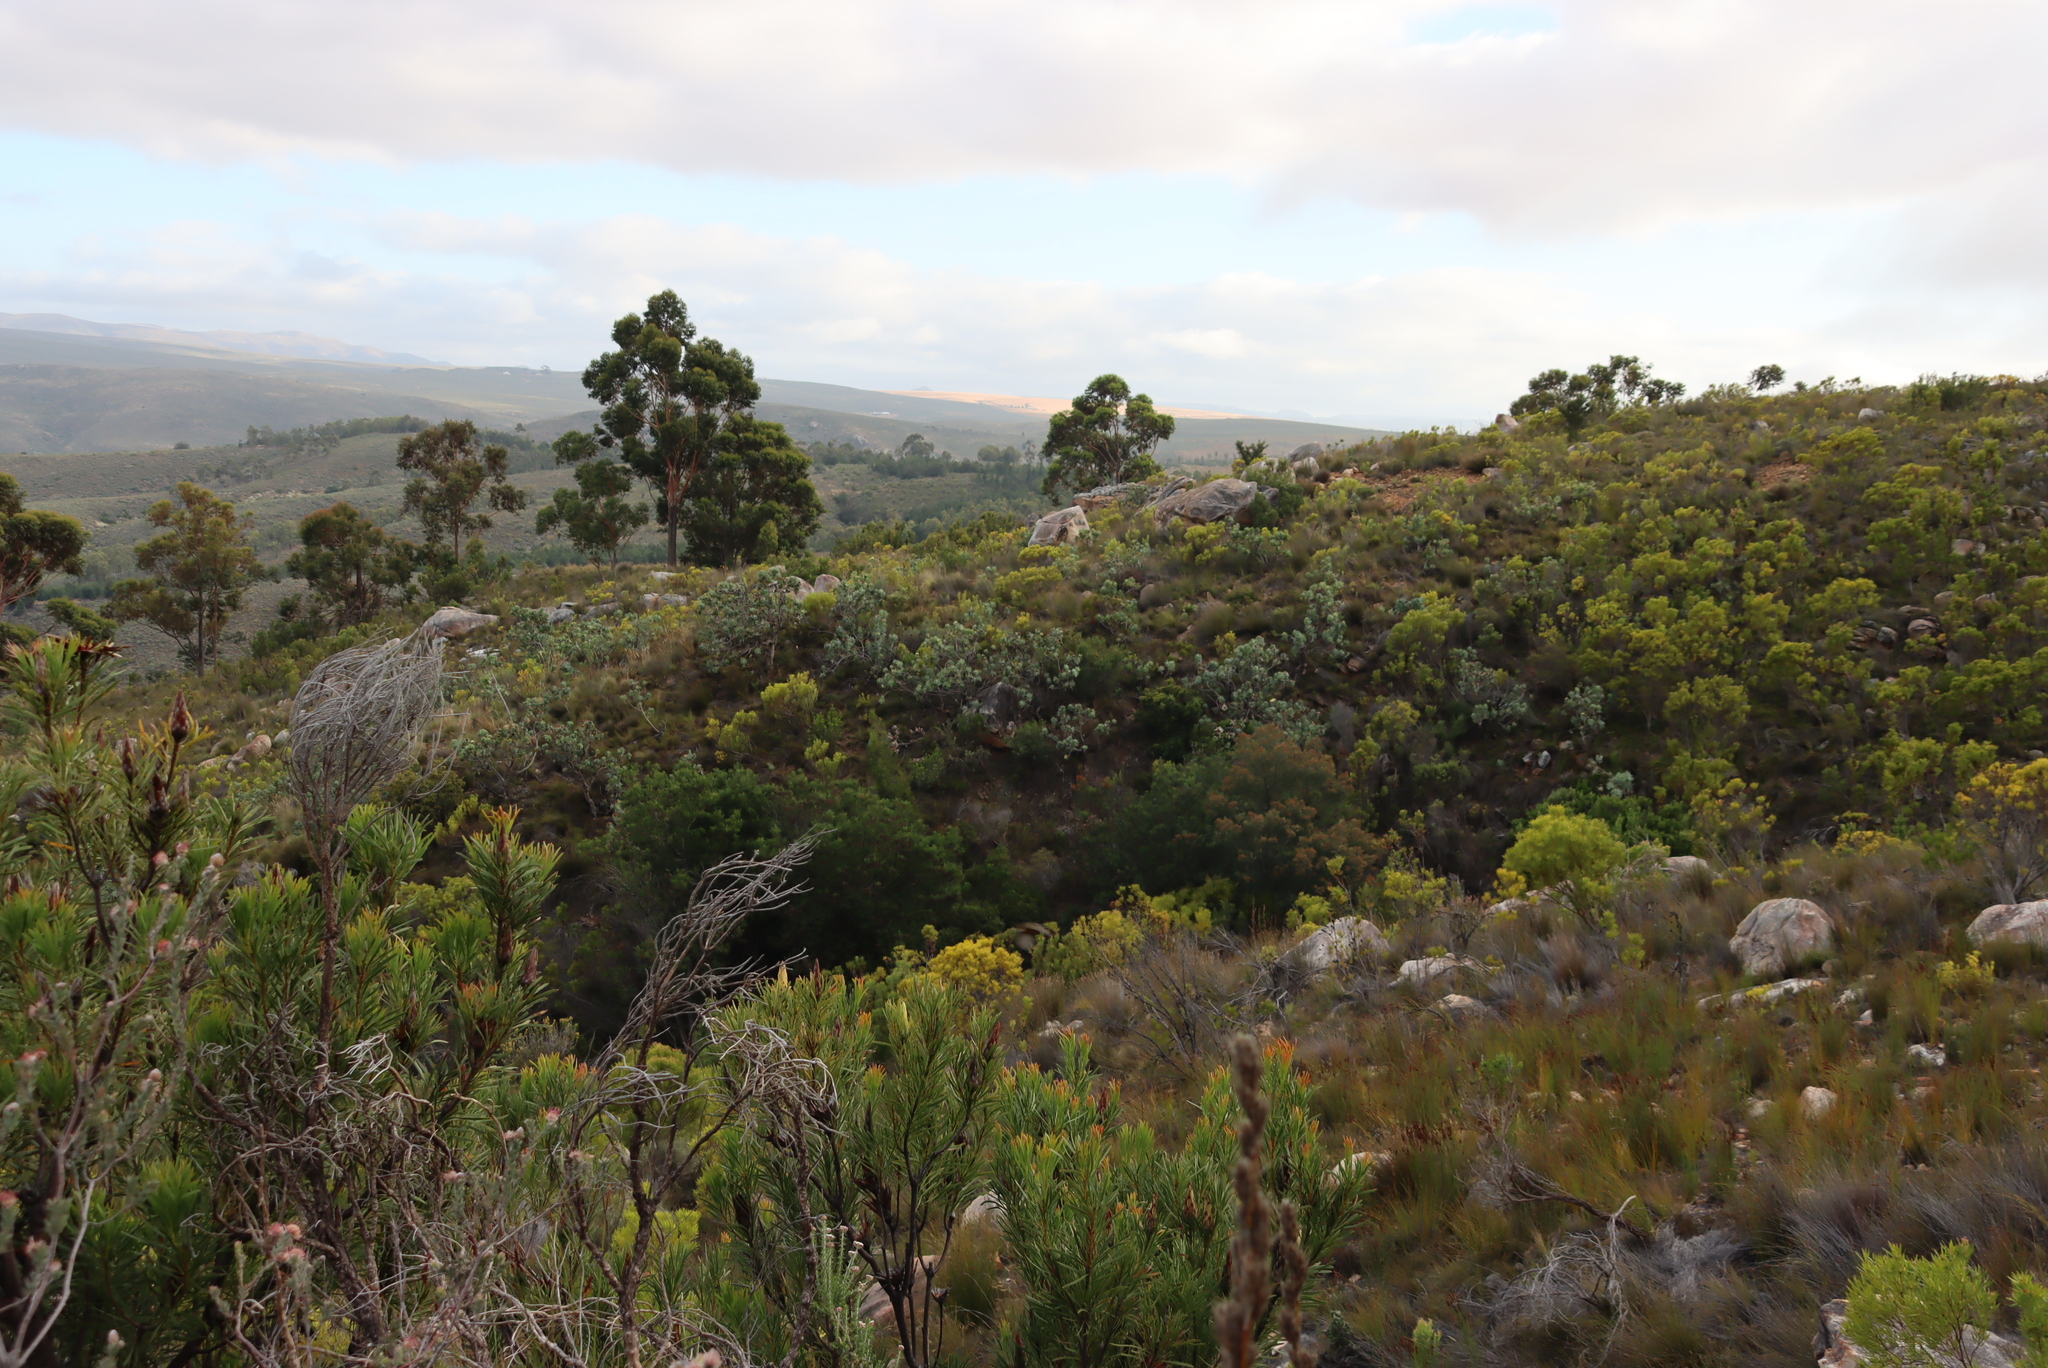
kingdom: Plantae
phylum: Tracheophyta
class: Magnoliopsida
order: Proteales
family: Proteaceae
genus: Protea
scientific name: Protea nitida
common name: Tree protea
